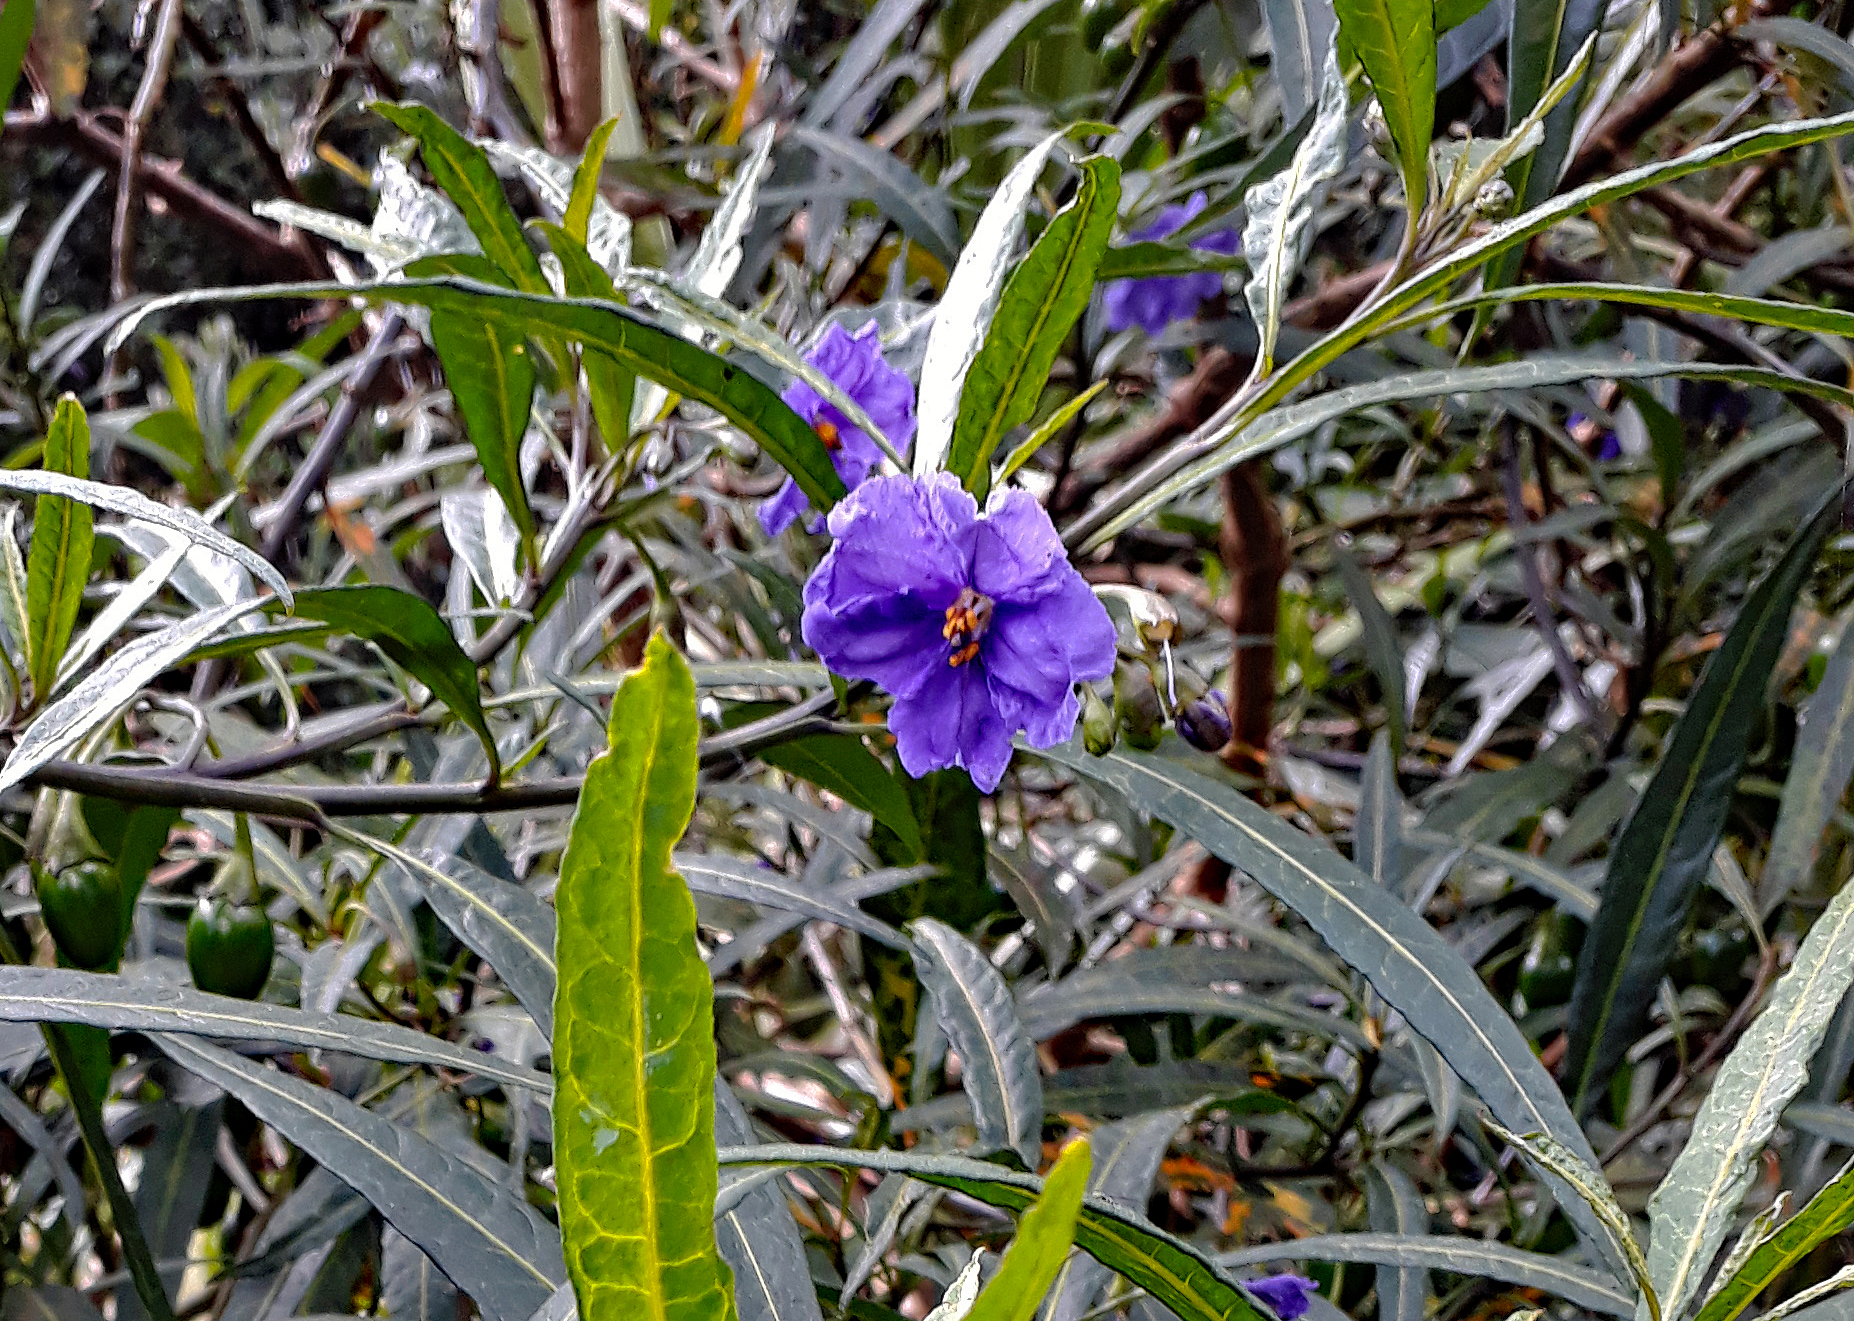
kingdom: Plantae
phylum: Tracheophyta
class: Magnoliopsida
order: Solanales
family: Solanaceae
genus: Solanum
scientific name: Solanum laciniatum
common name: Kangaroo-apple
